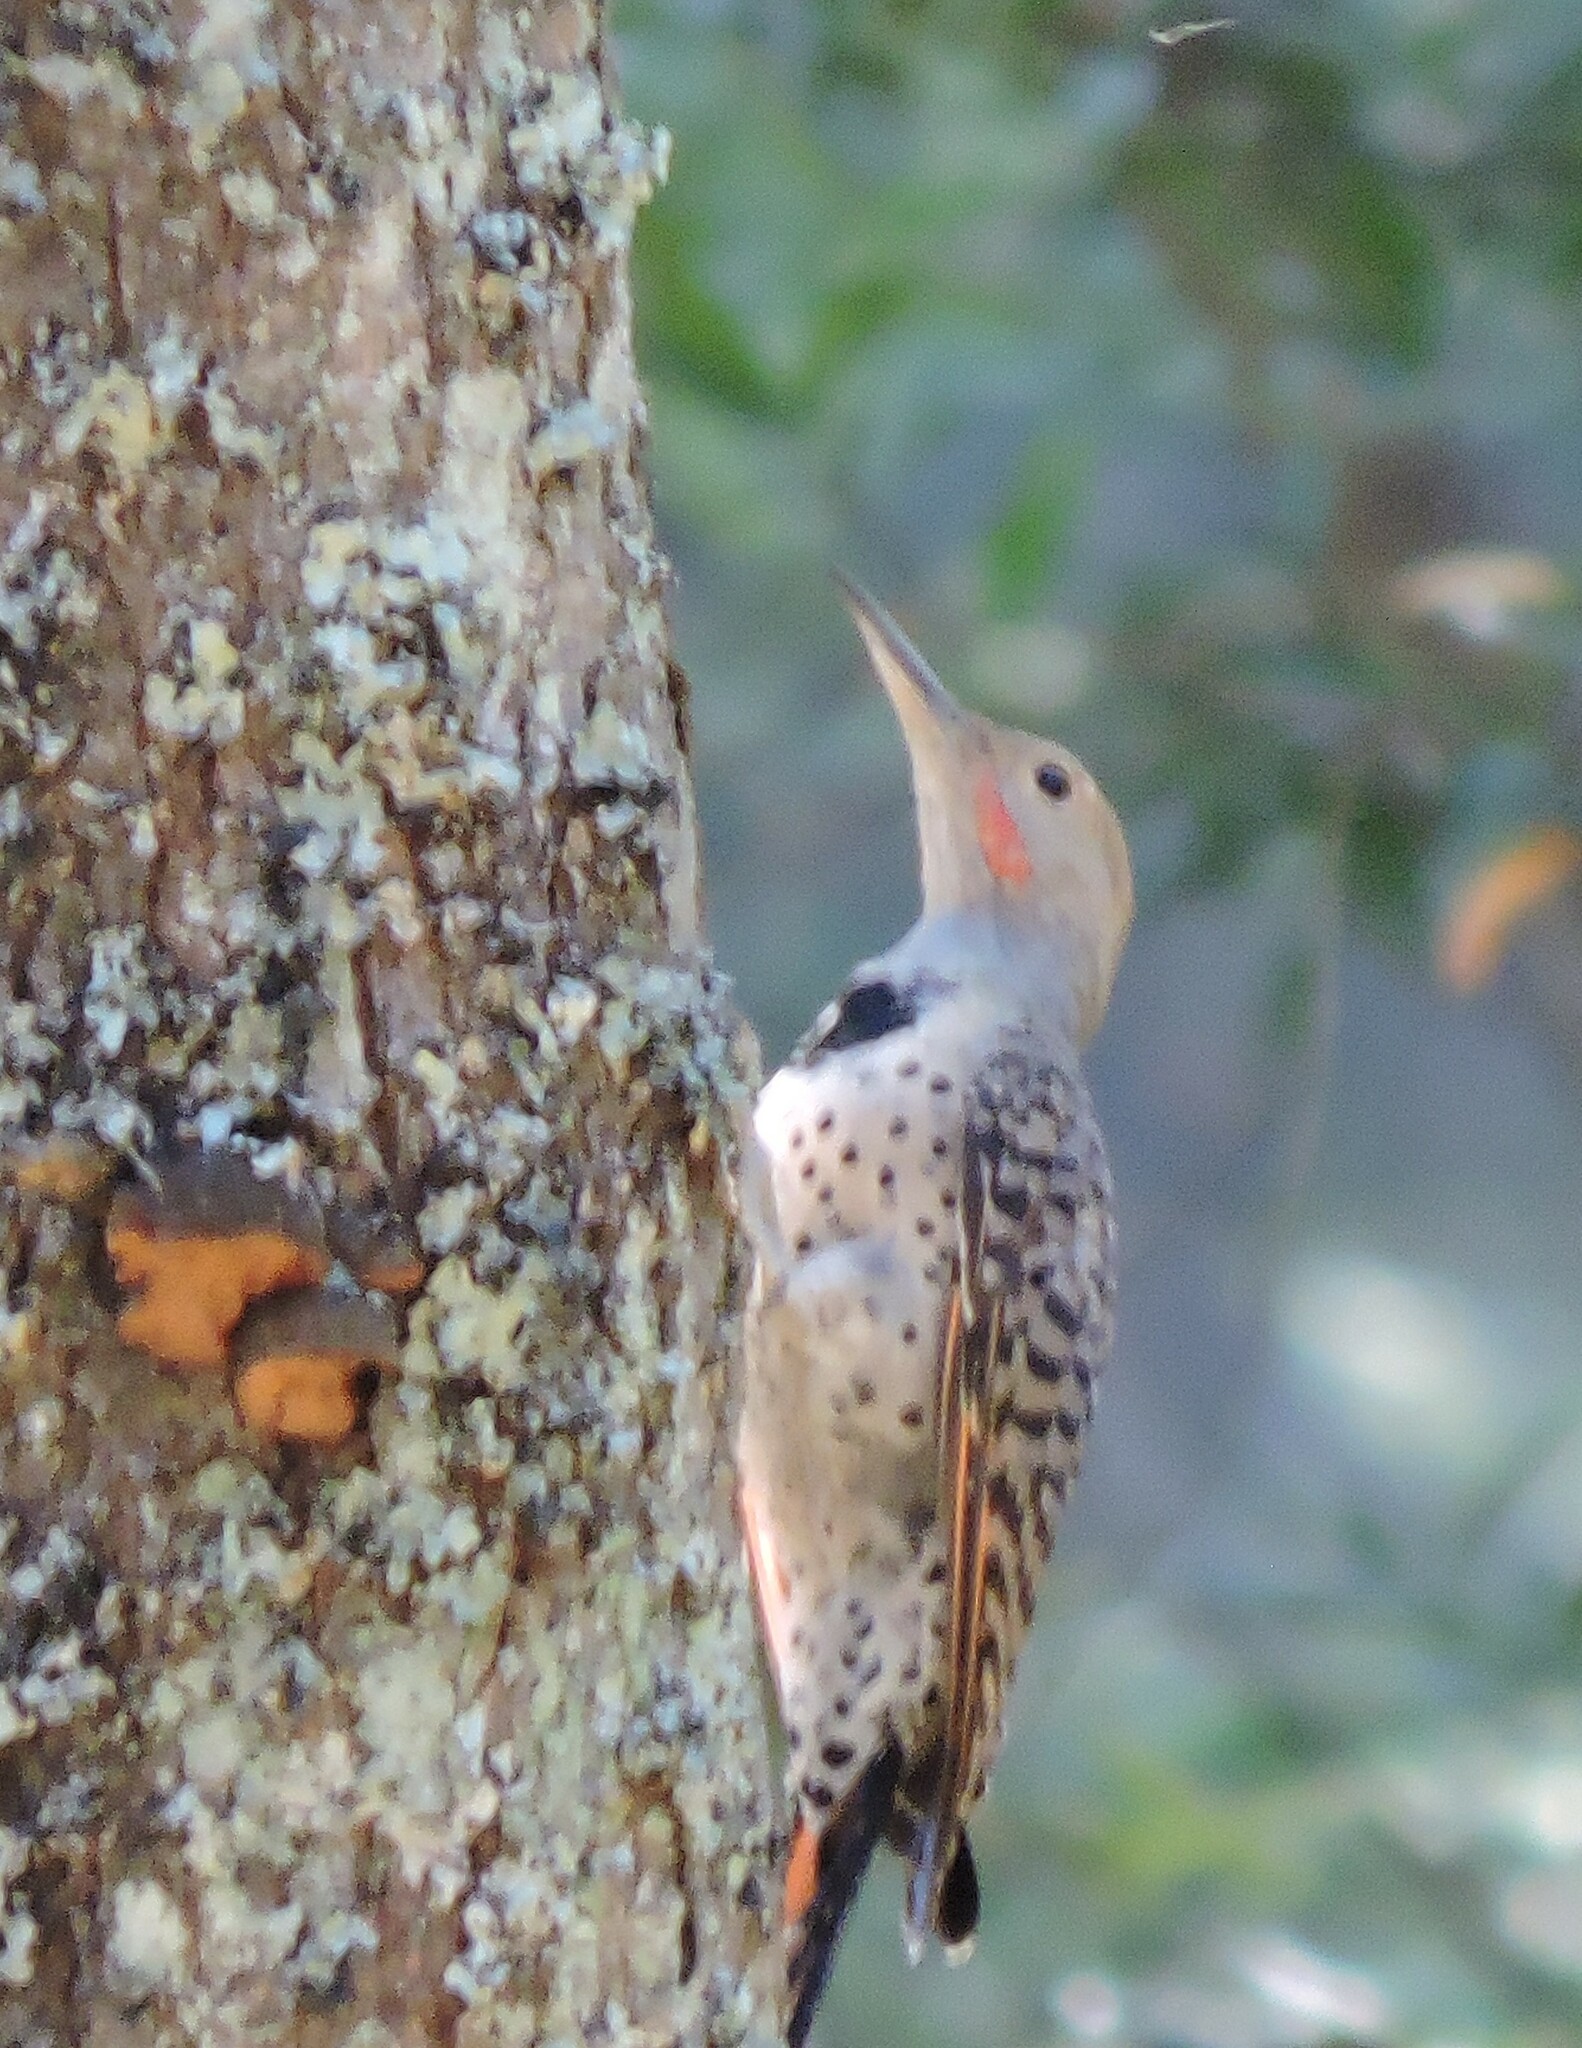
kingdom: Animalia
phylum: Chordata
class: Aves
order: Piciformes
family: Picidae
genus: Colaptes
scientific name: Colaptes auratus
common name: Northern flicker
